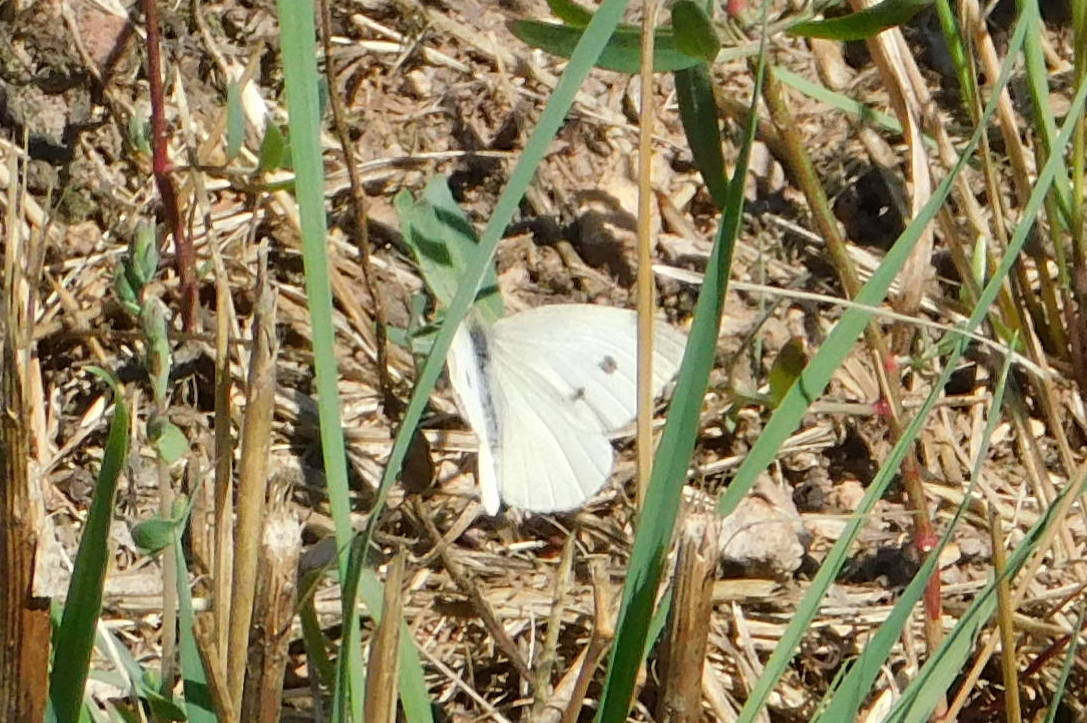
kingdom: Animalia
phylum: Arthropoda
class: Insecta
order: Lepidoptera
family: Pieridae
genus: Pieris
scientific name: Pieris rapae
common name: Small white
